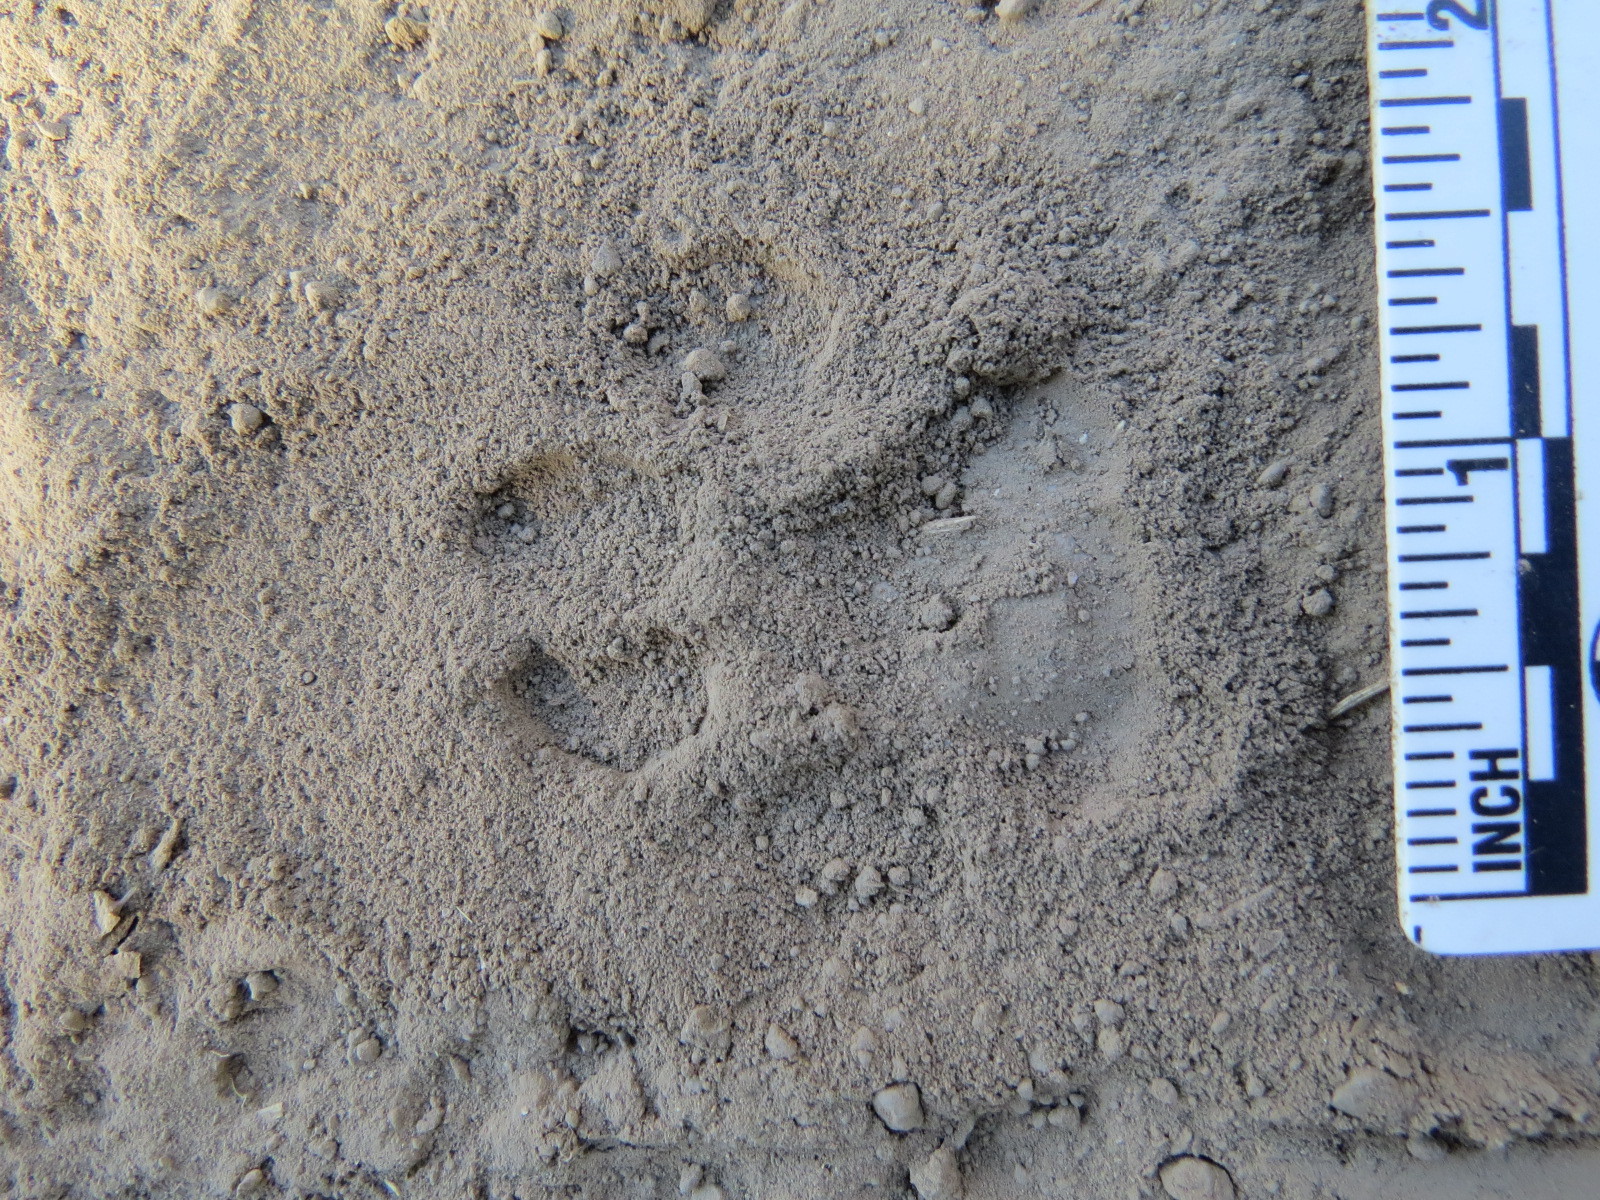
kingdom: Animalia
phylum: Chordata
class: Mammalia
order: Carnivora
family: Felidae
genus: Lynx
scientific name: Lynx rufus
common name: Bobcat
